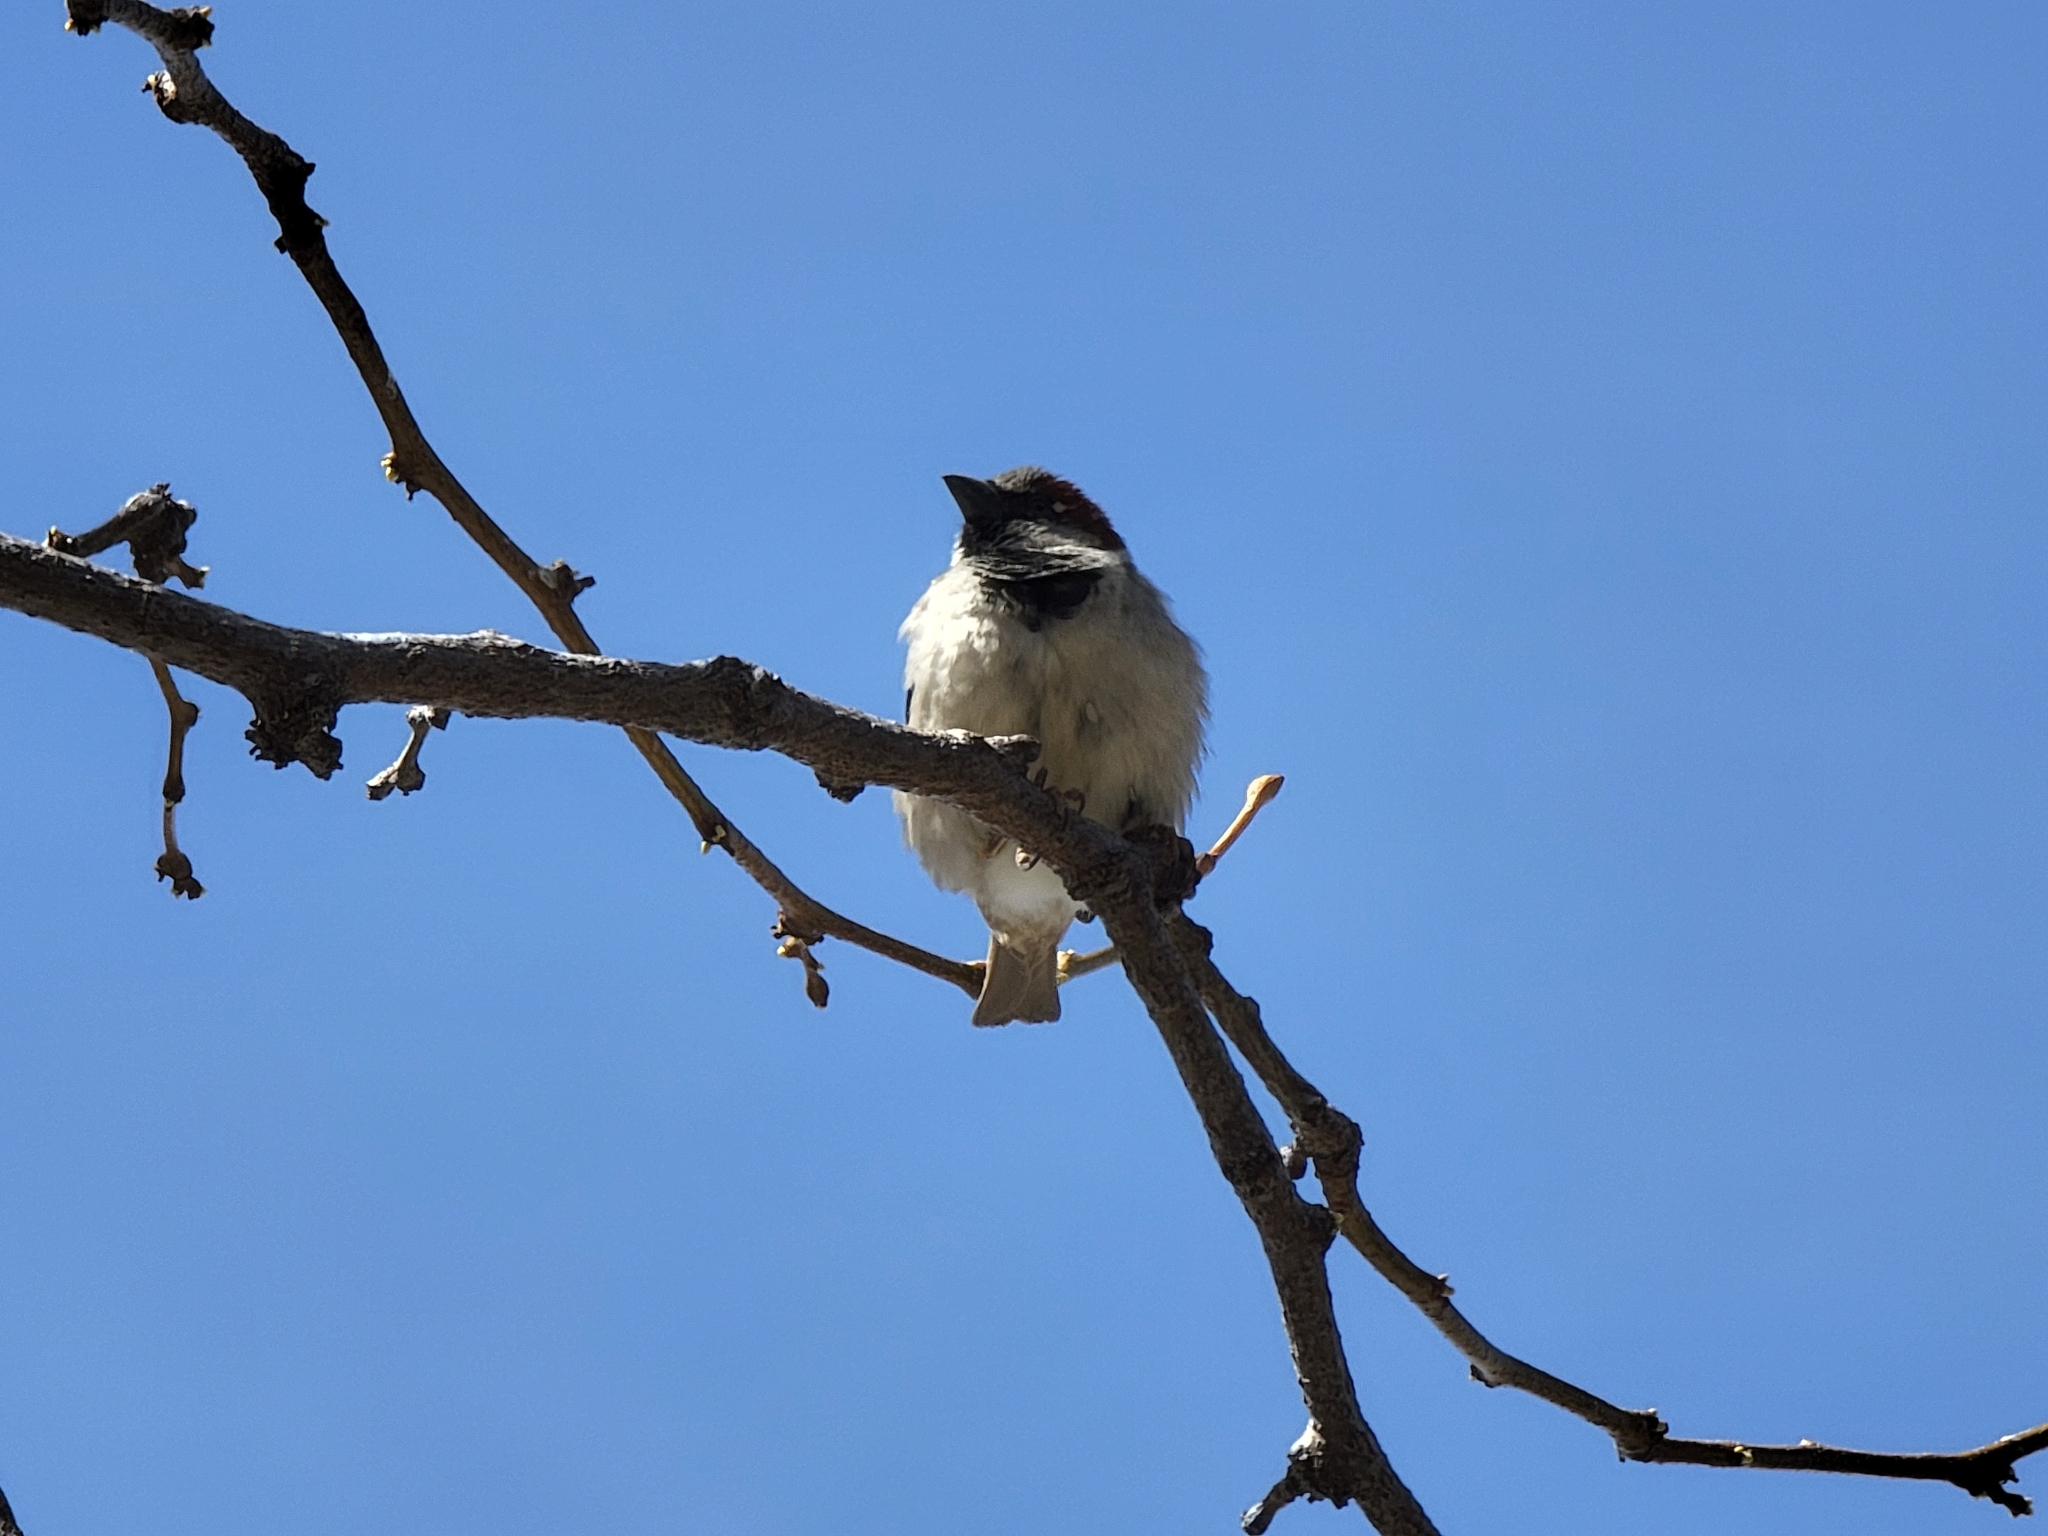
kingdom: Animalia
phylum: Chordata
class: Aves
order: Passeriformes
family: Passeridae
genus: Passer
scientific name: Passer domesticus
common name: House sparrow
